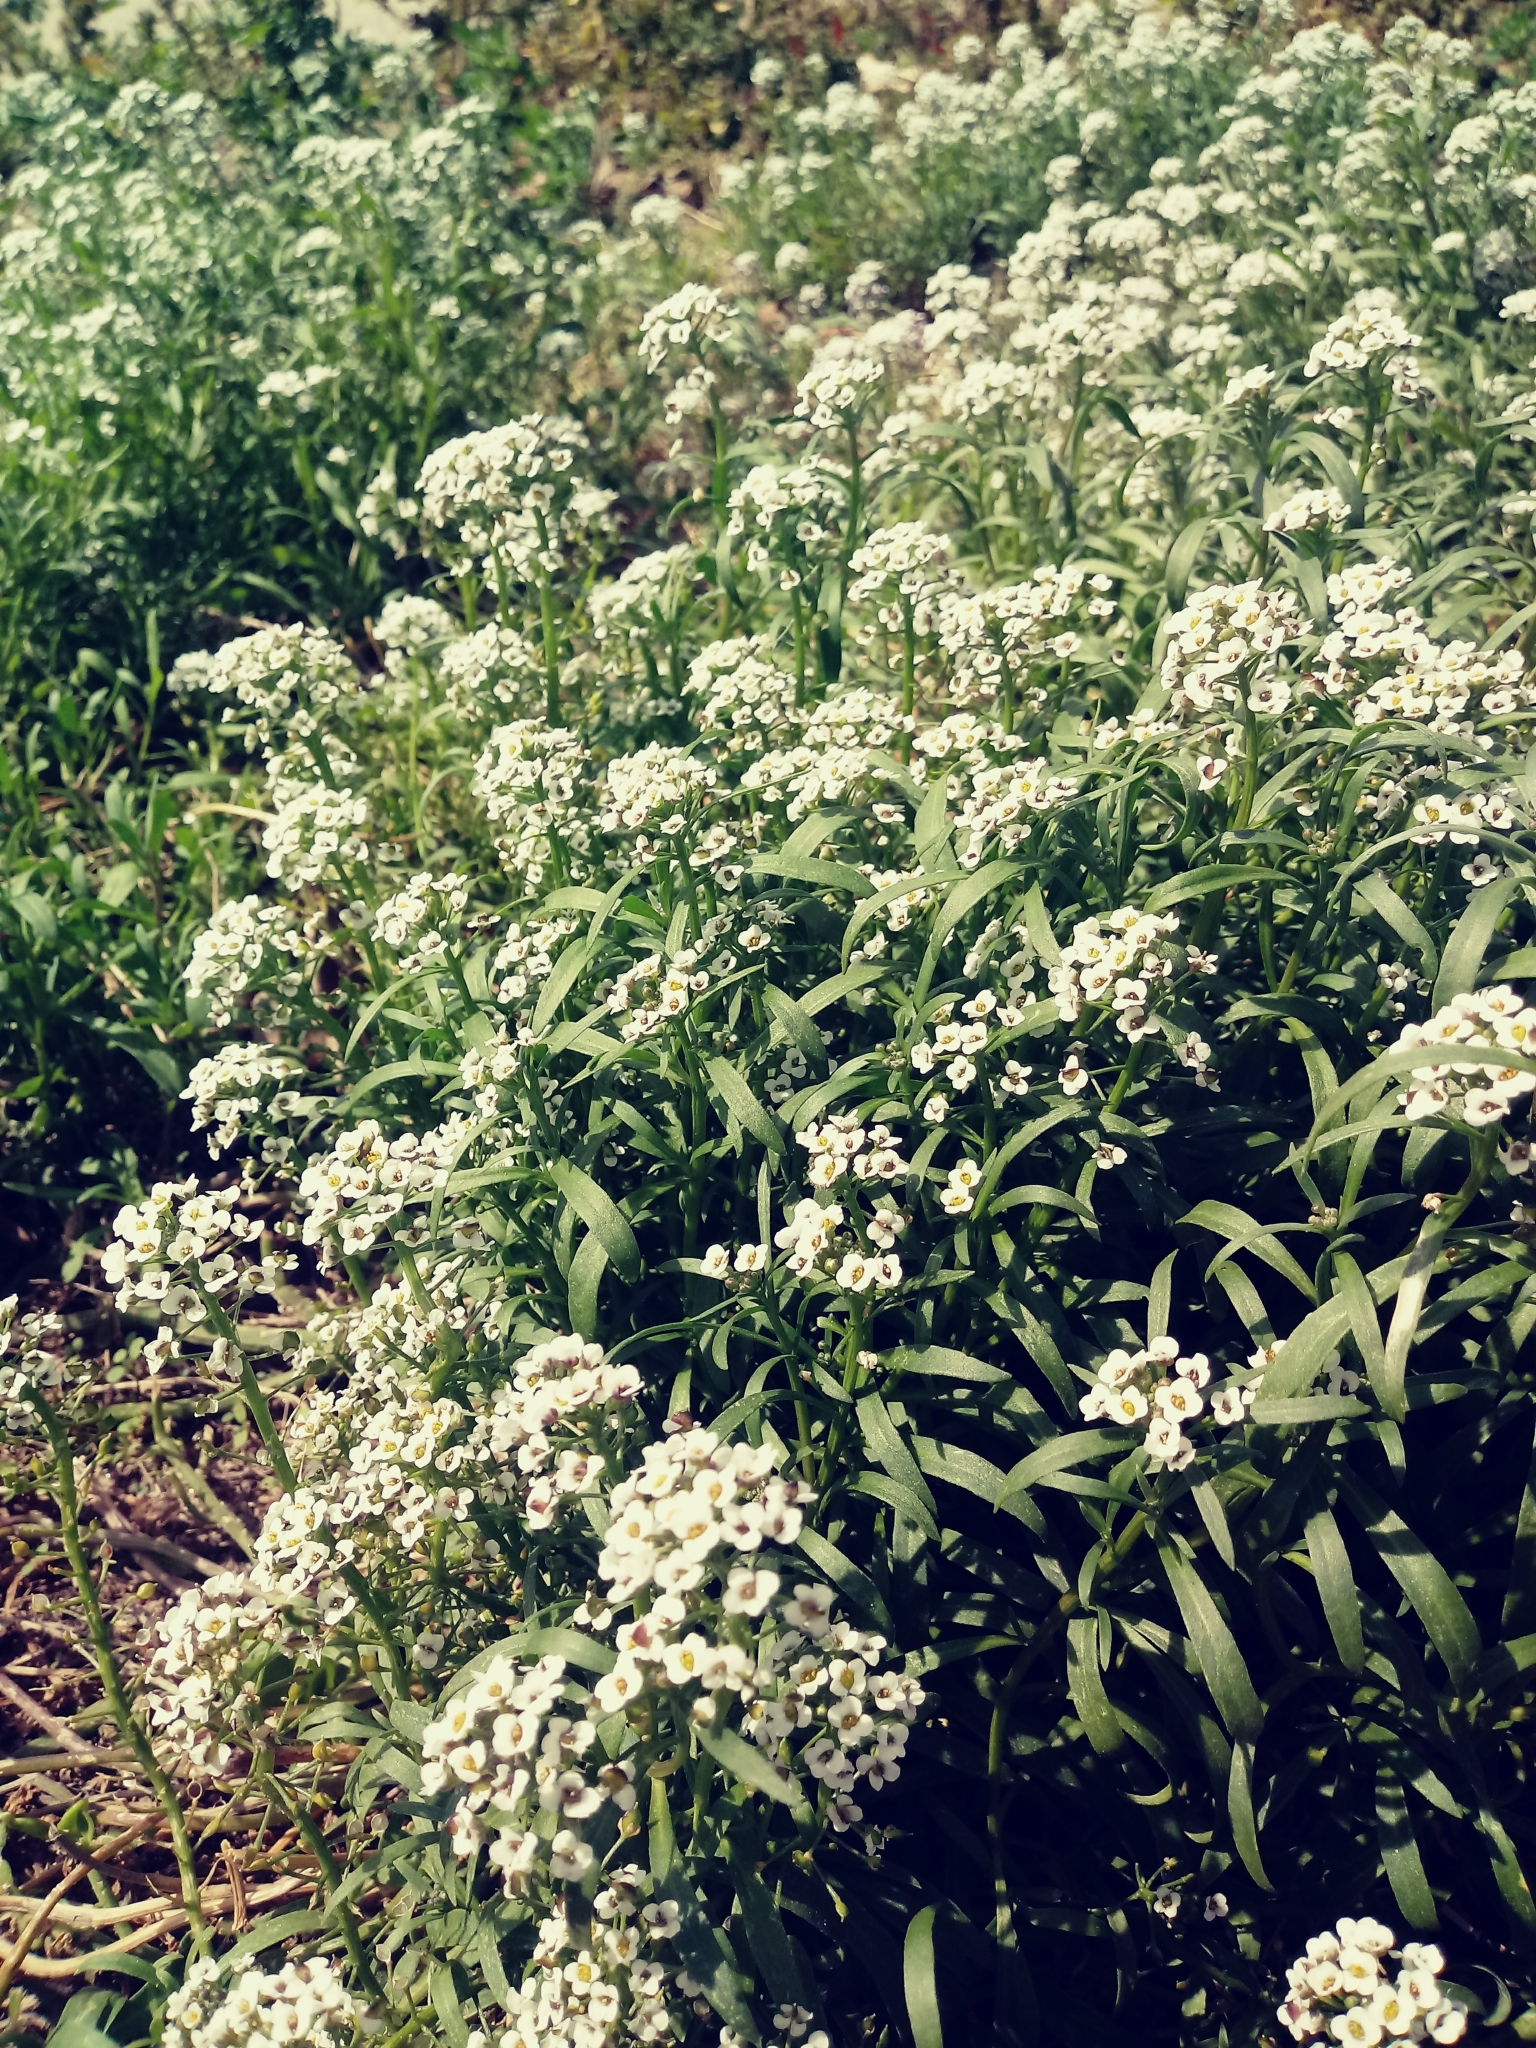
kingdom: Plantae
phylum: Tracheophyta
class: Magnoliopsida
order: Brassicales
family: Brassicaceae
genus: Lobularia
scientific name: Lobularia maritima
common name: Sweet alison
